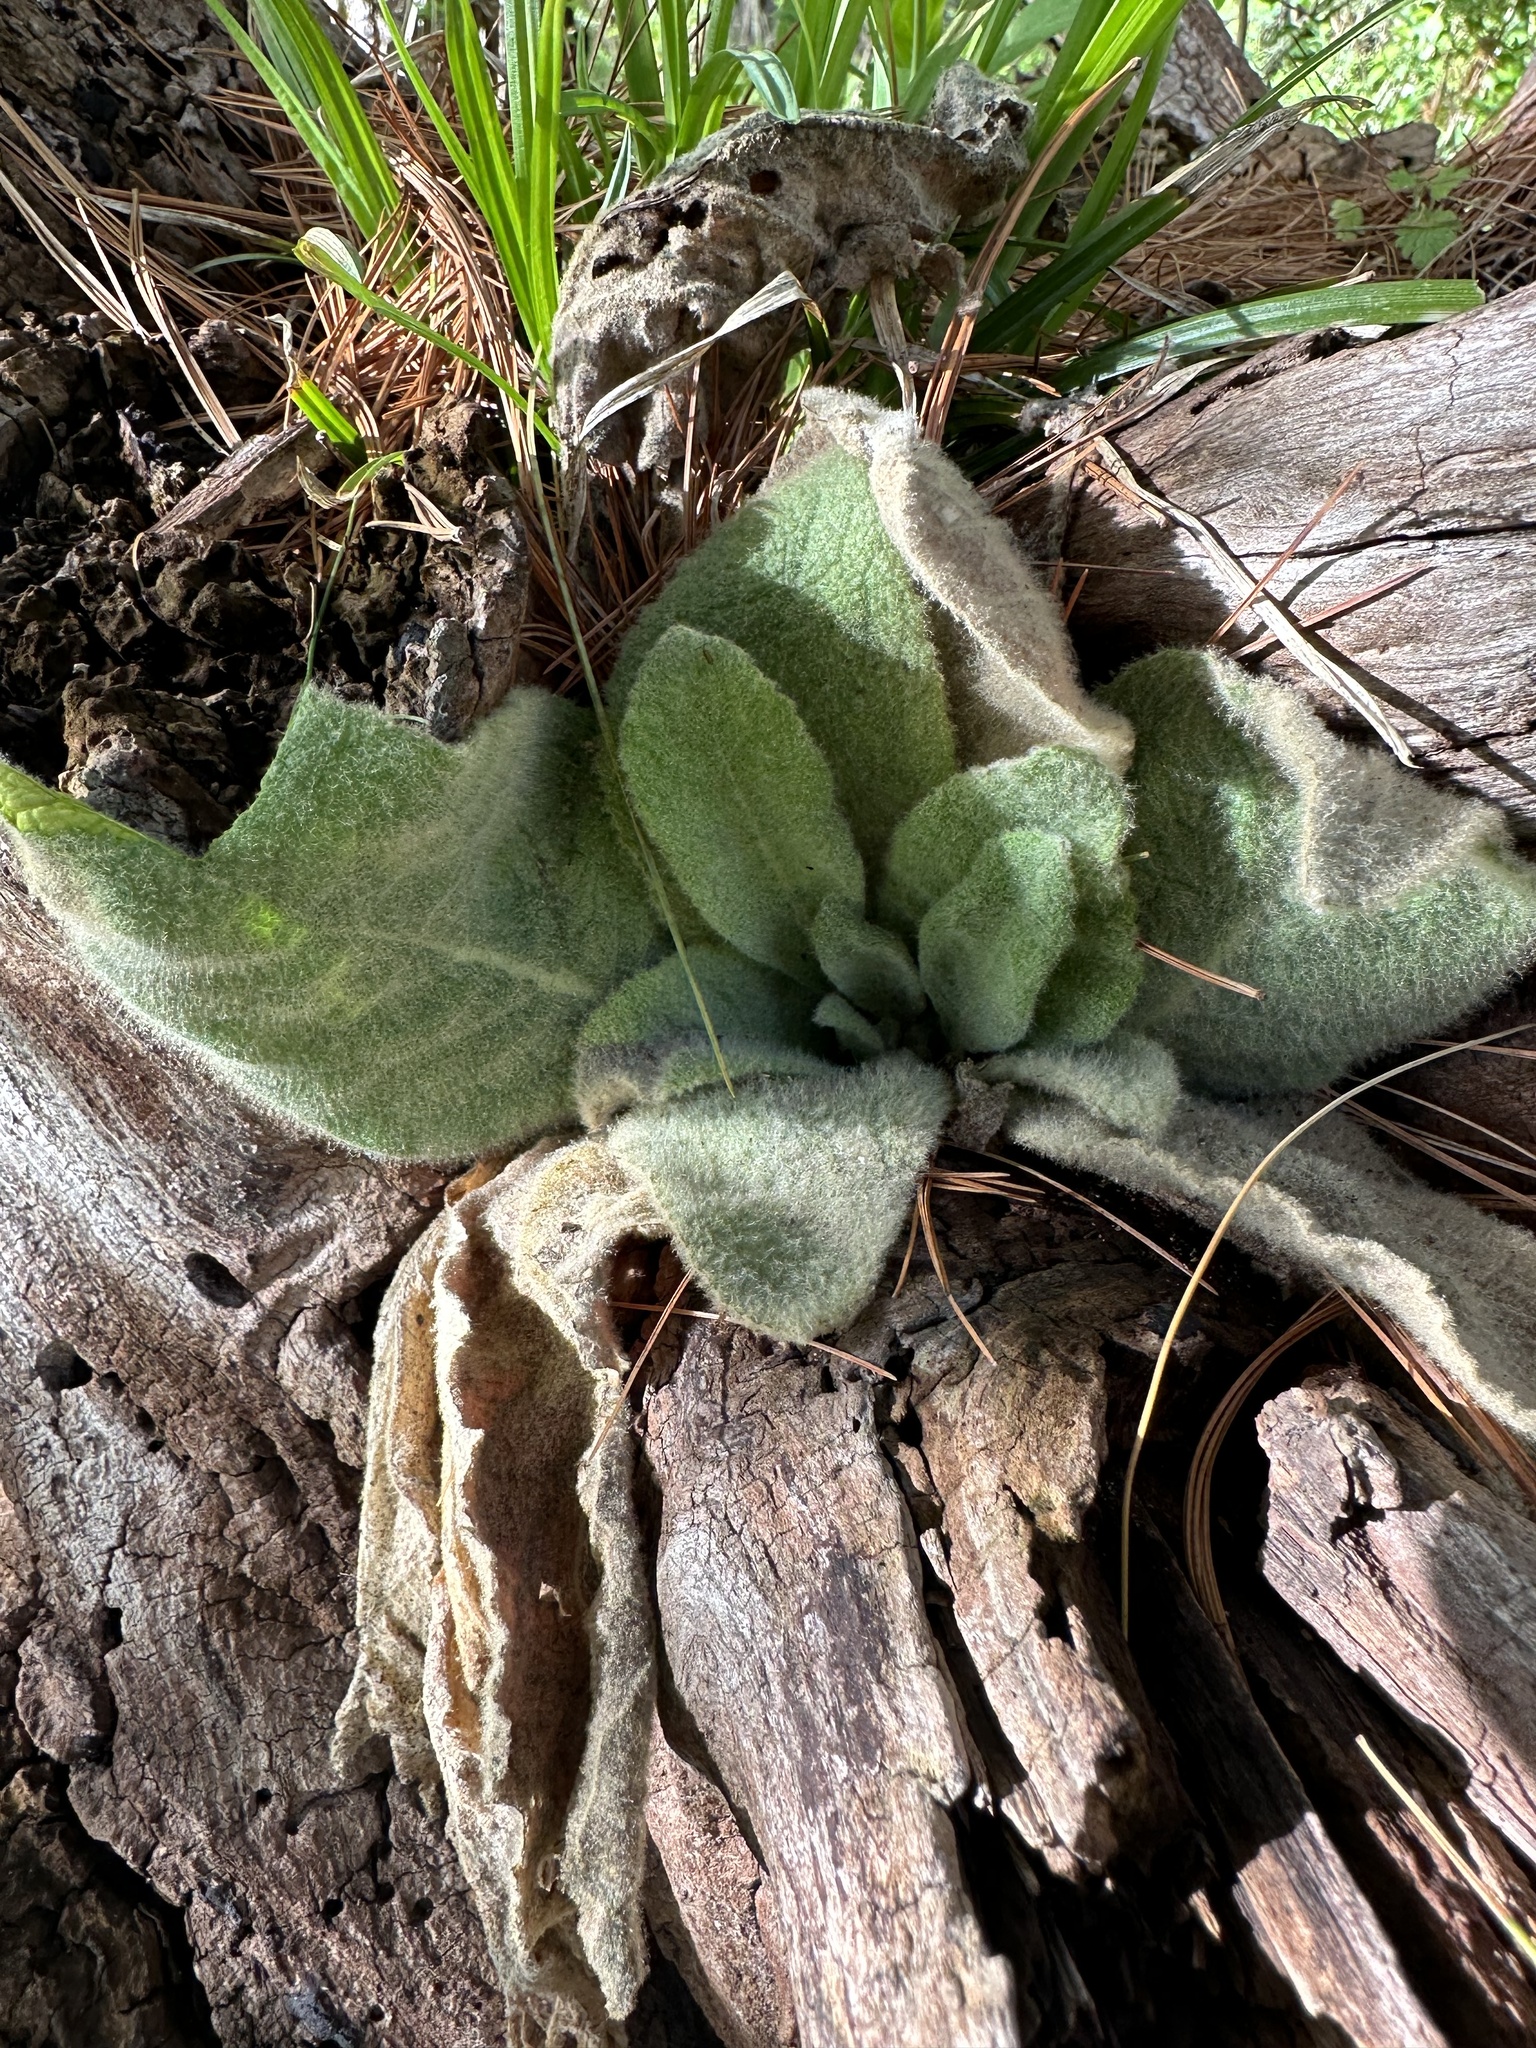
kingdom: Plantae
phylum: Tracheophyta
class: Magnoliopsida
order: Lamiales
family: Scrophulariaceae
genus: Verbascum
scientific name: Verbascum thapsus
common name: Common mullein
